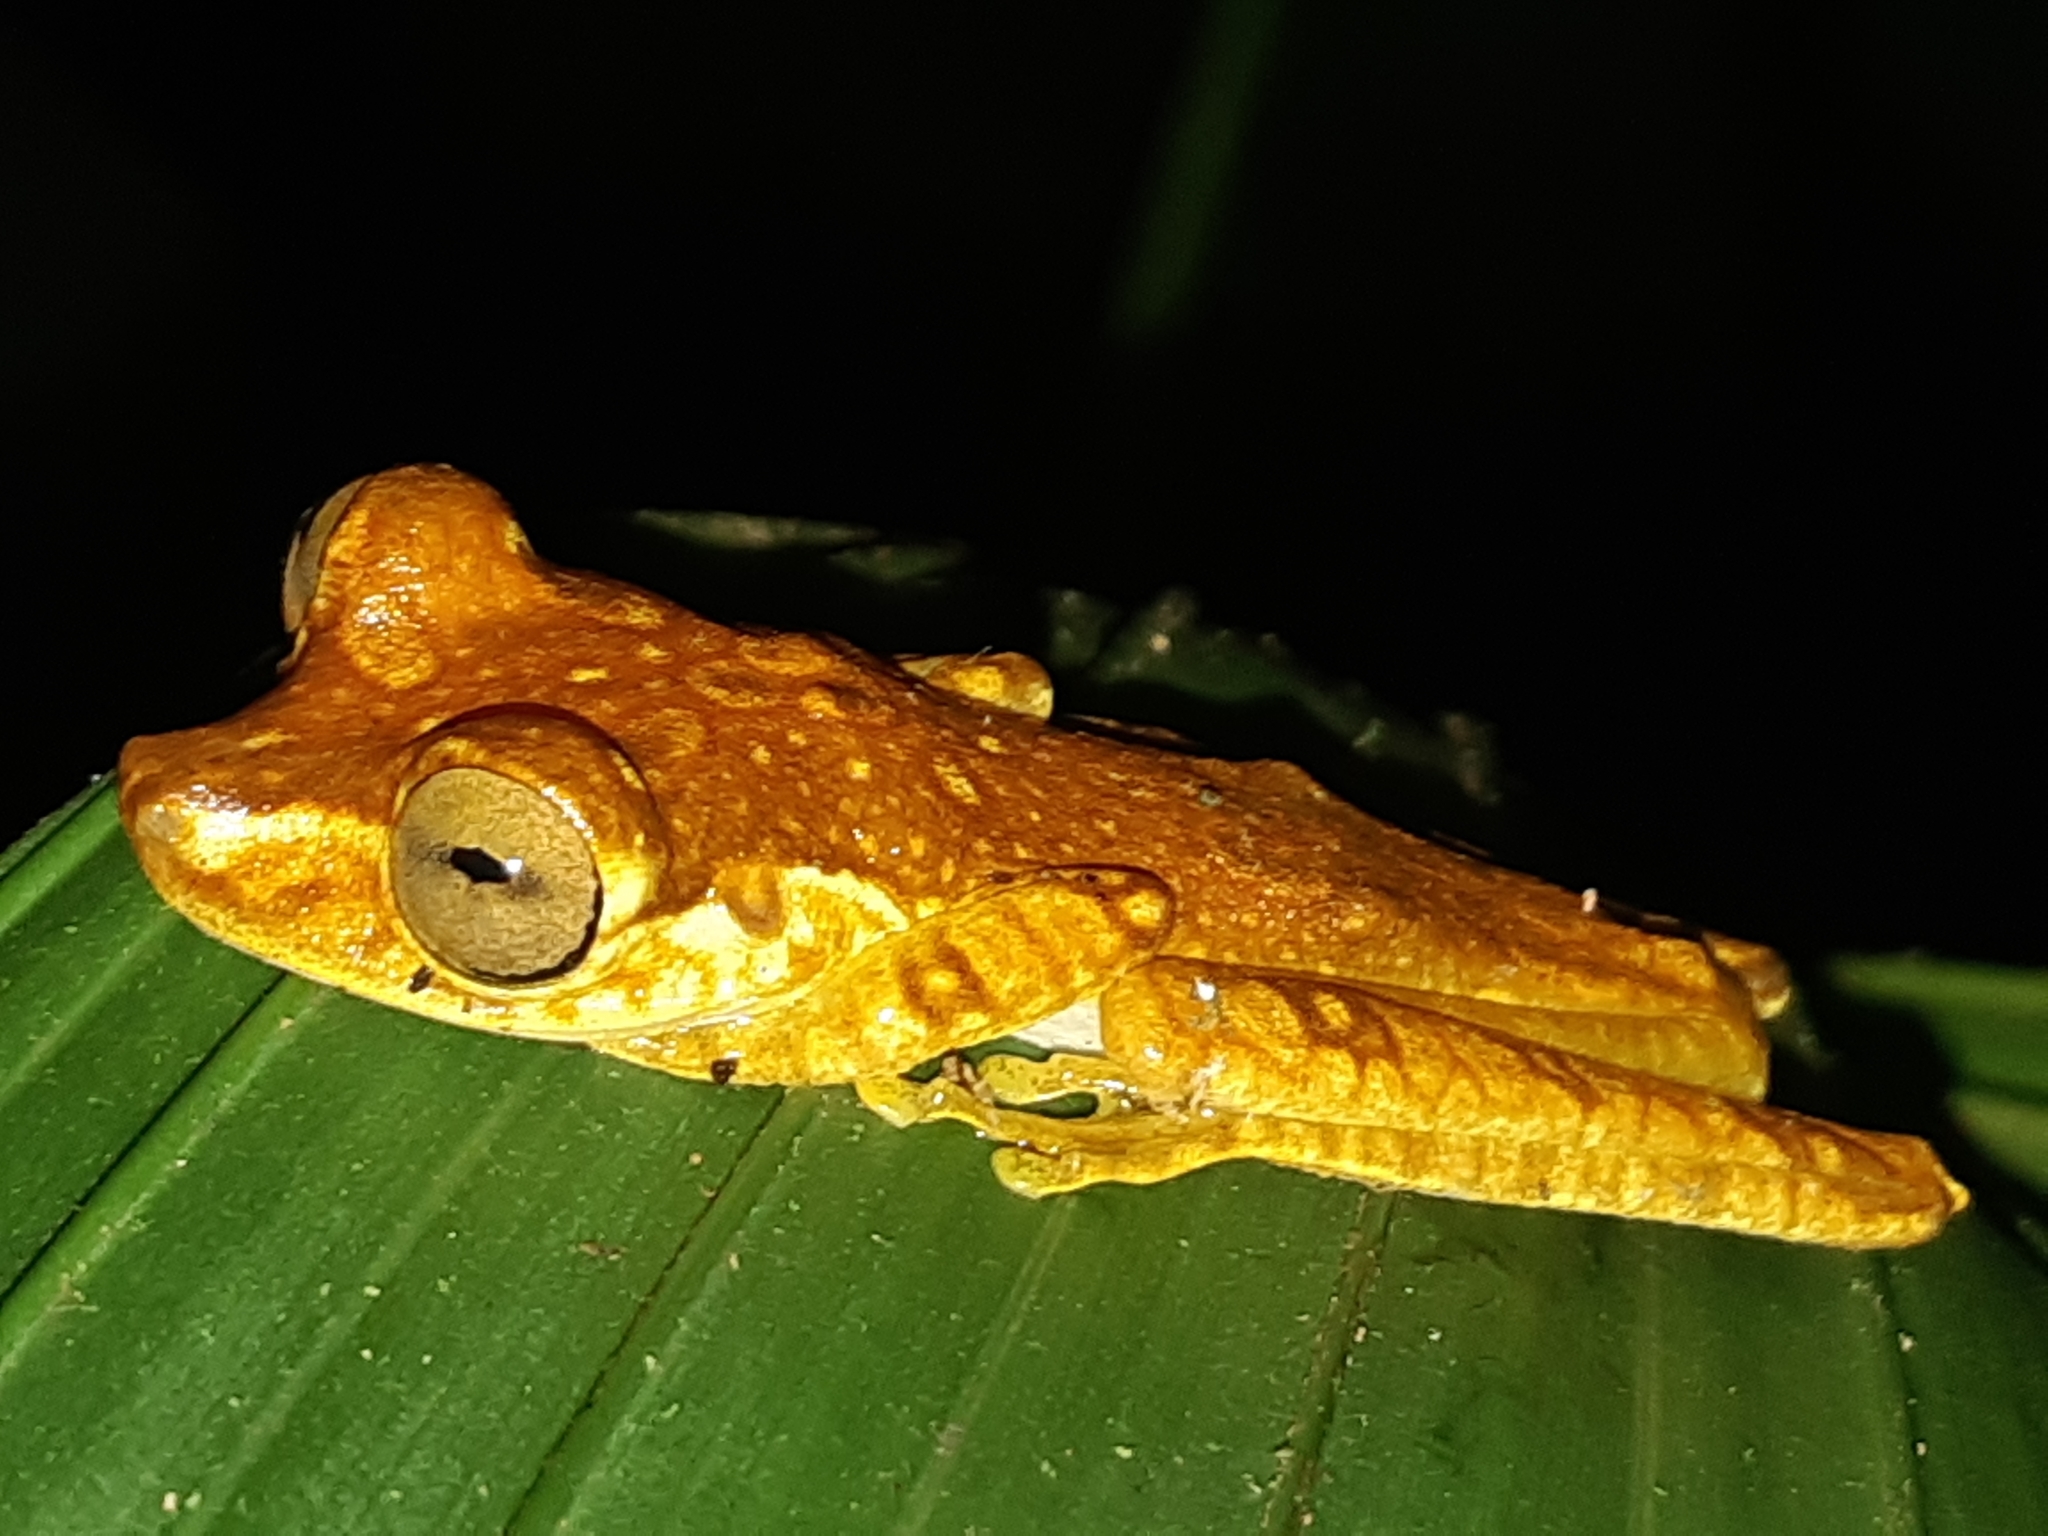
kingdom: Animalia
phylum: Chordata
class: Amphibia
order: Anura
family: Hylidae
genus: Boana
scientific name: Boana picturata
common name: Imbabura treefrog
